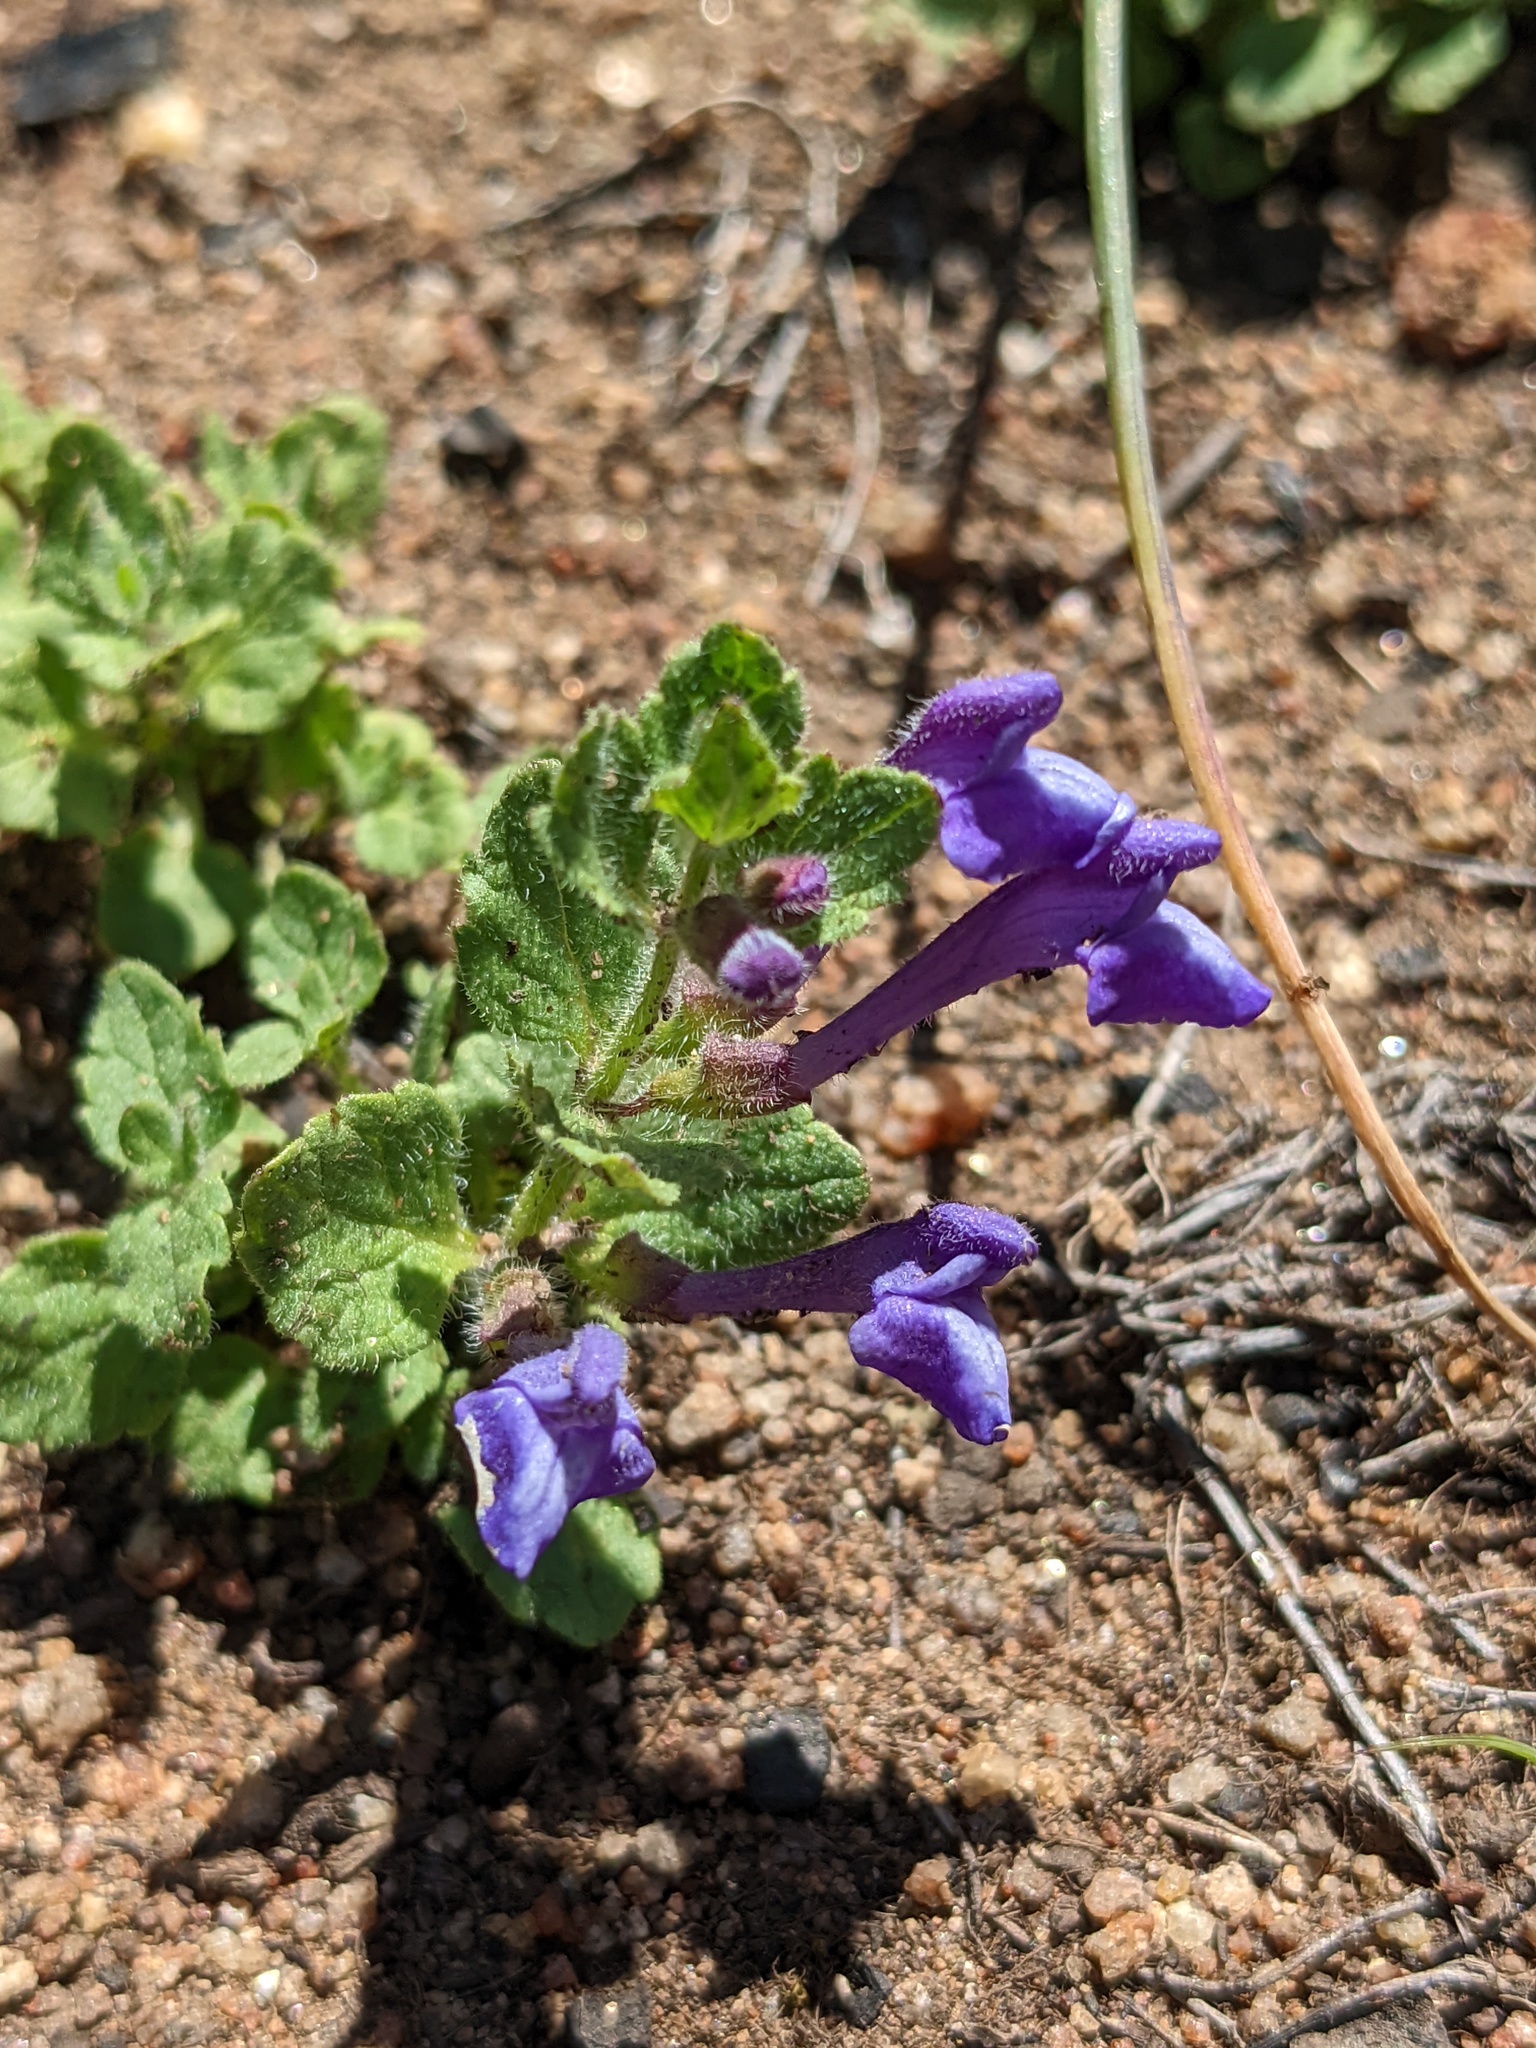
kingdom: Plantae
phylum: Tracheophyta
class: Magnoliopsida
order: Lamiales
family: Lamiaceae
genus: Scutellaria
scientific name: Scutellaria tuberosa
